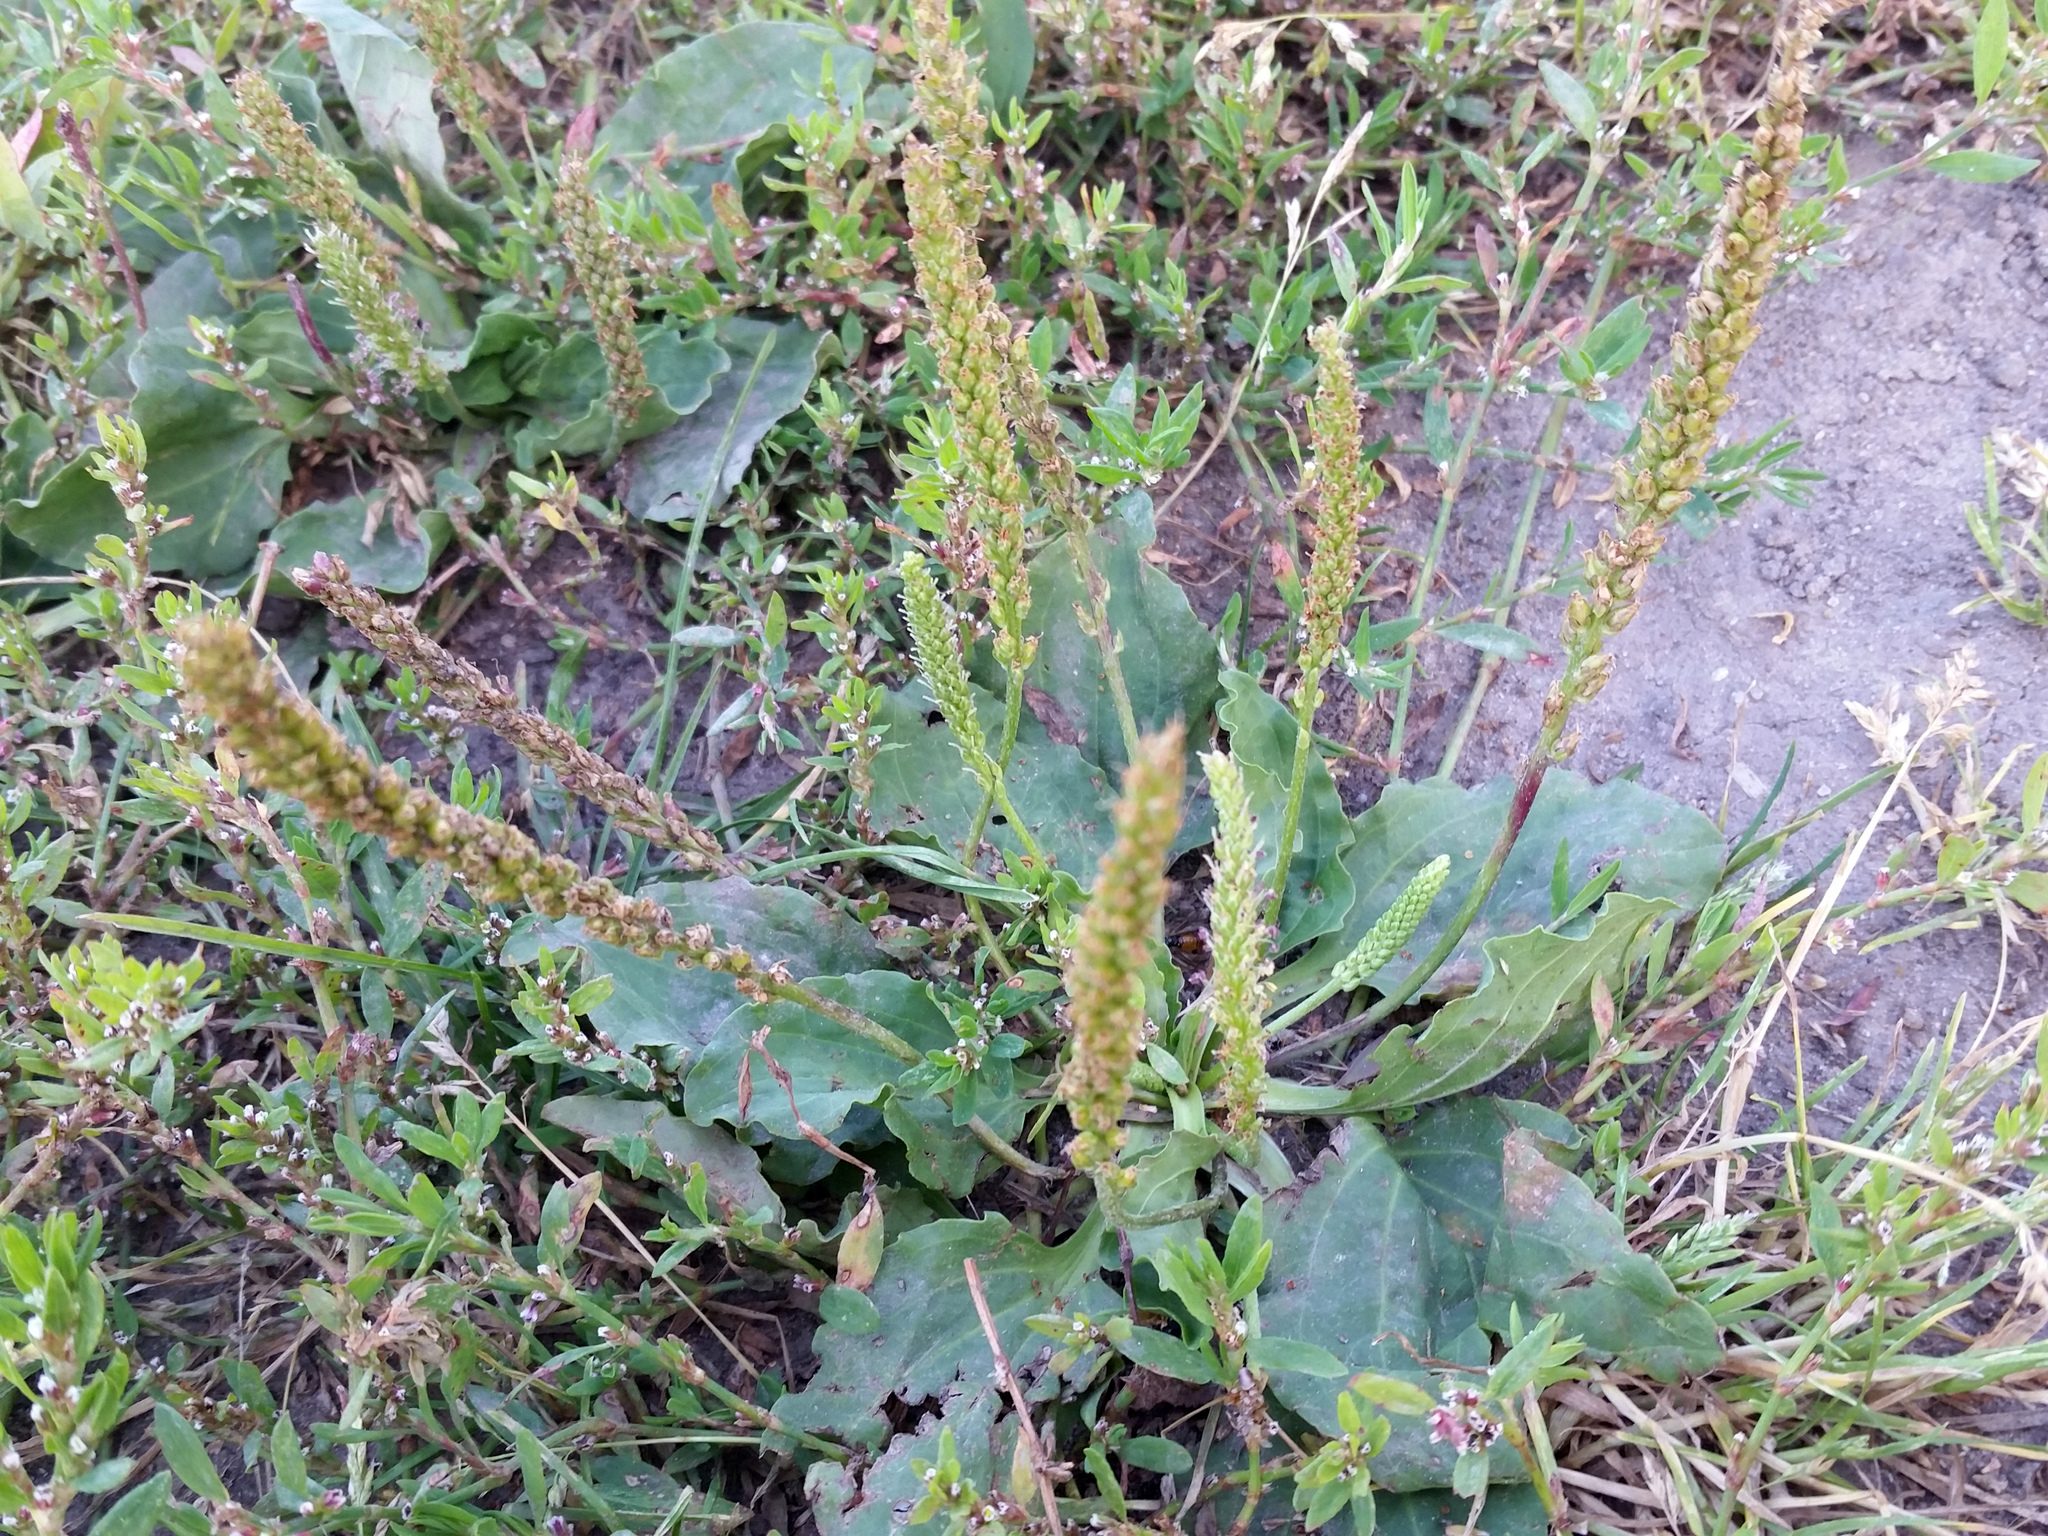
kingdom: Plantae
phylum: Tracheophyta
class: Magnoliopsida
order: Lamiales
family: Plantaginaceae
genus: Plantago
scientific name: Plantago major
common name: Common plantain
